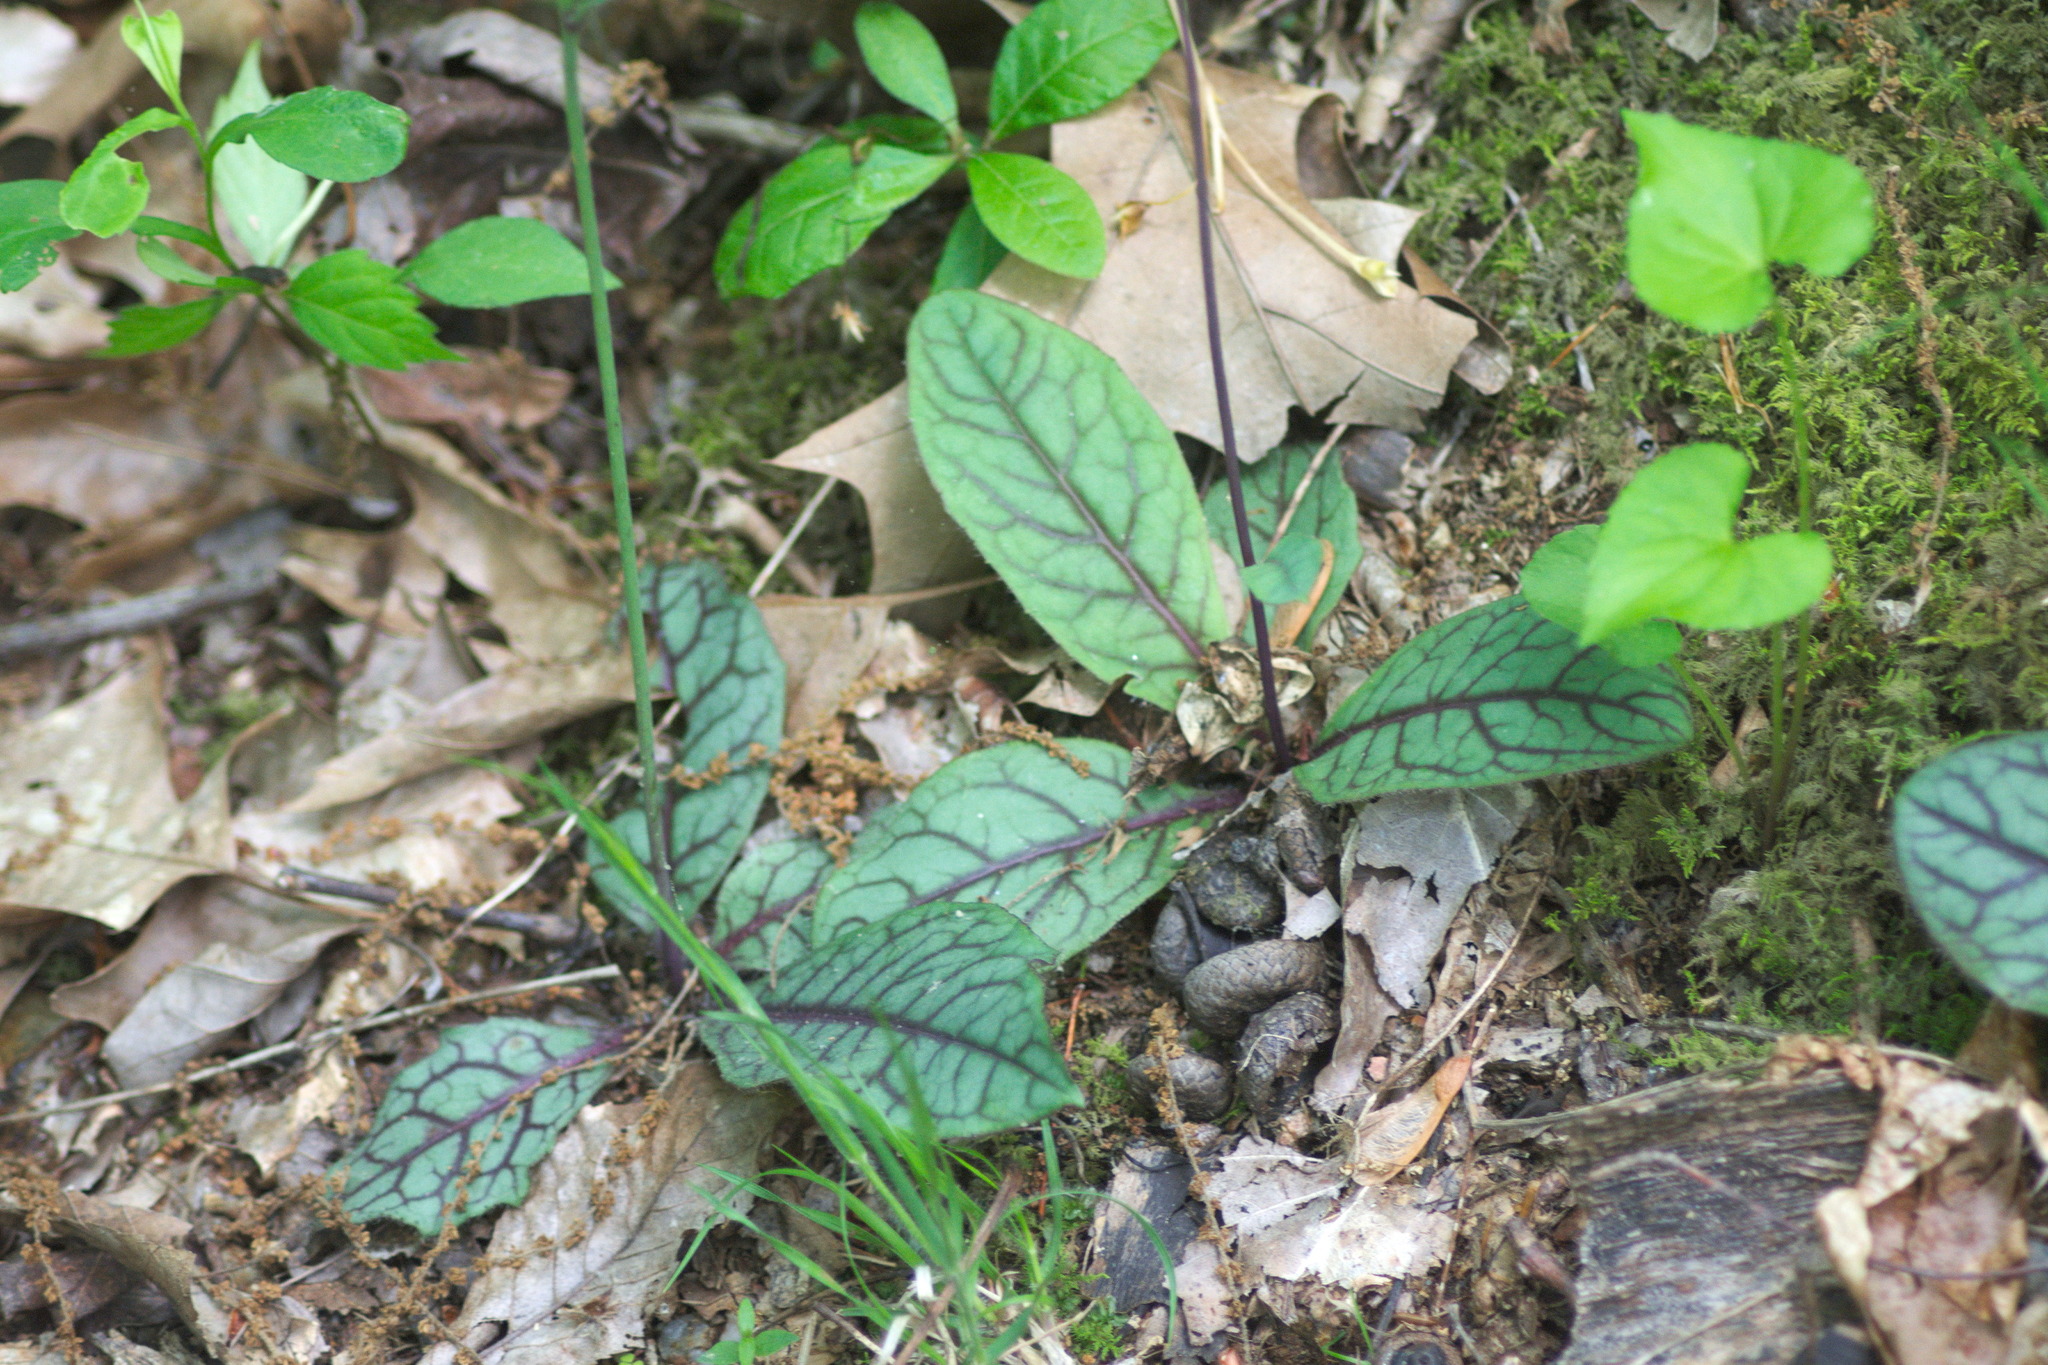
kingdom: Plantae
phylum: Tracheophyta
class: Magnoliopsida
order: Asterales
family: Asteraceae
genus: Hieracium
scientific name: Hieracium venosum
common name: Rattlesnake hawkweed
